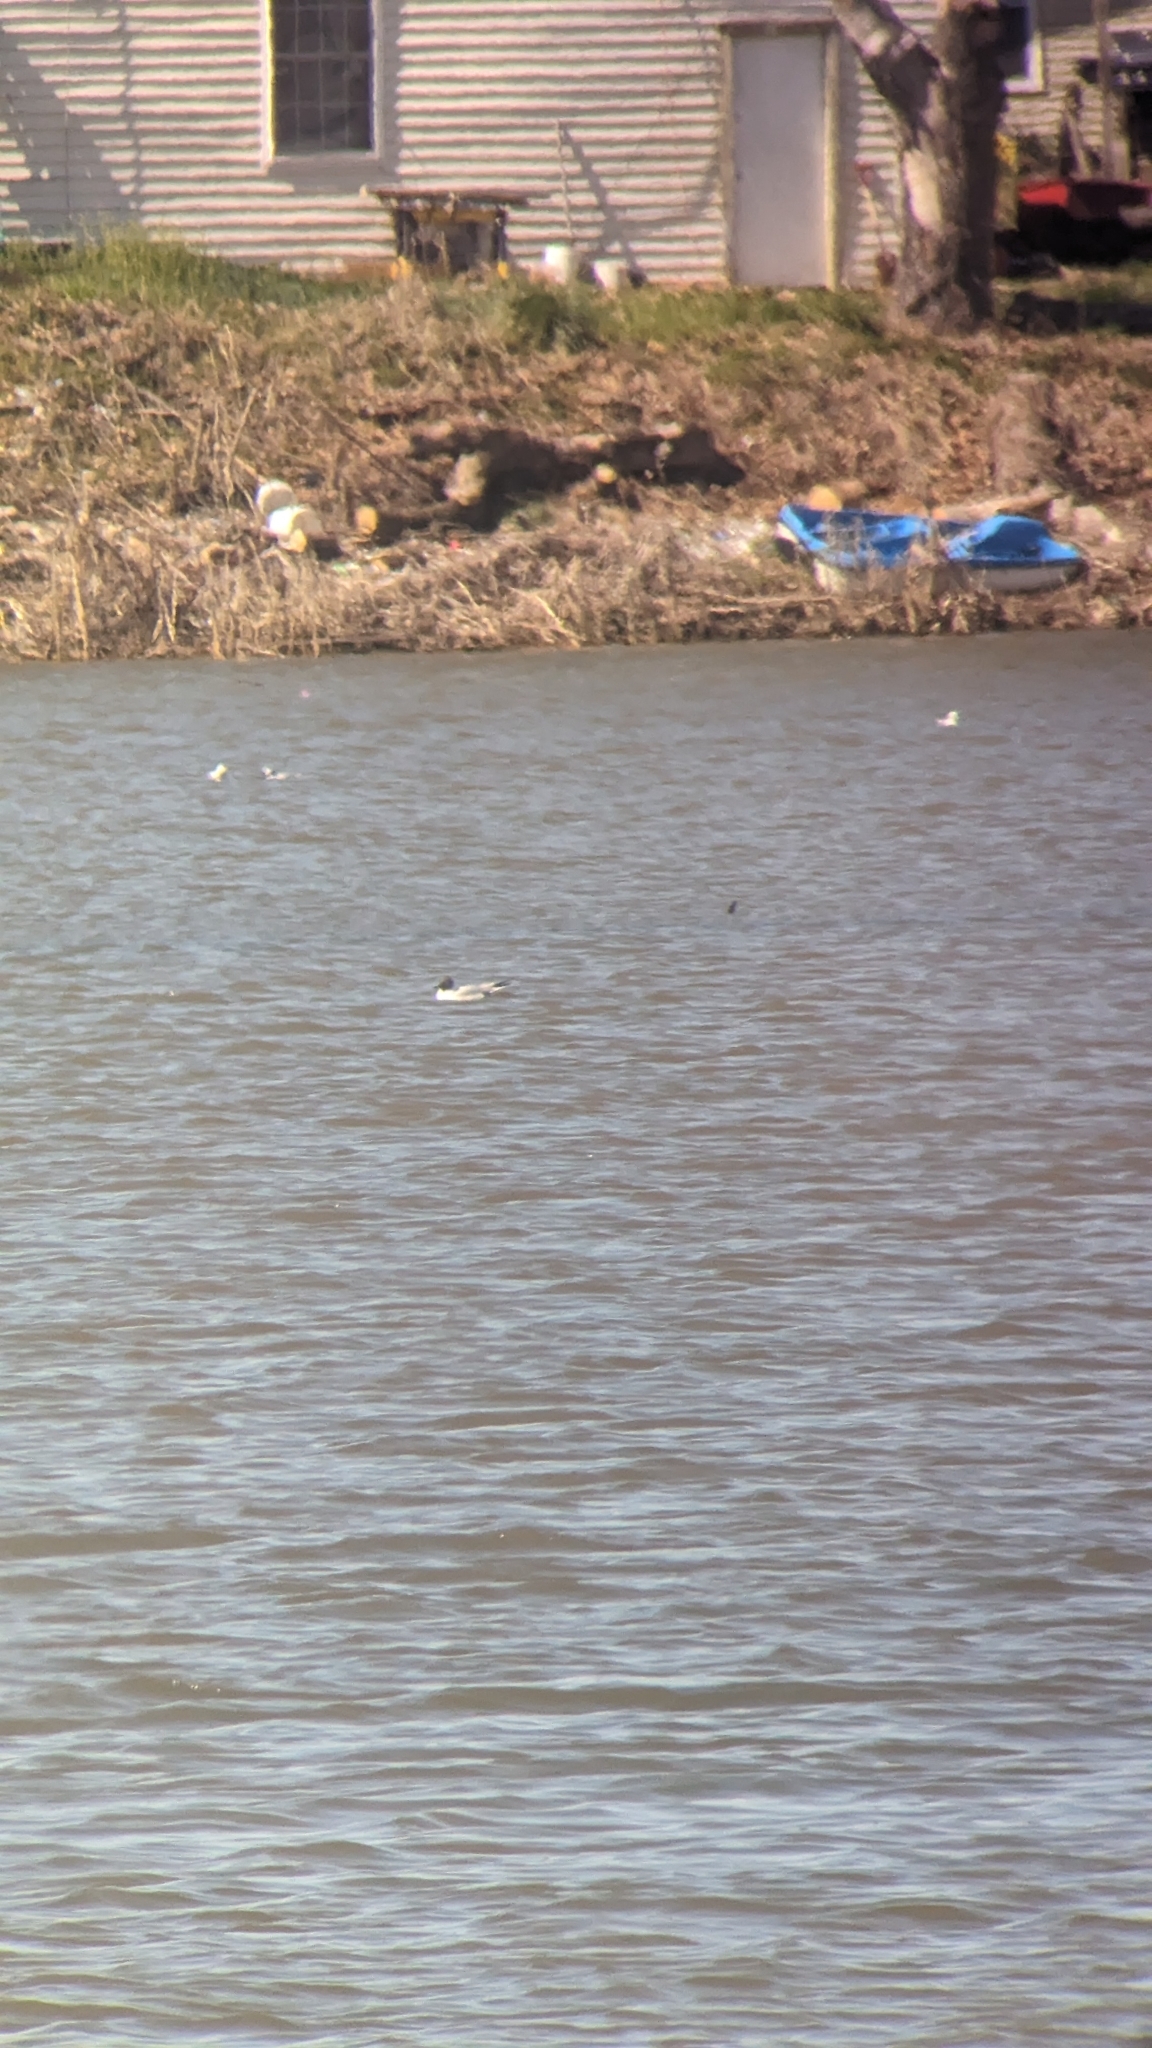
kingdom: Animalia
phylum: Chordata
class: Aves
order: Charadriiformes
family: Laridae
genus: Chroicocephalus
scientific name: Chroicocephalus ridibundus
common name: Black-headed gull
